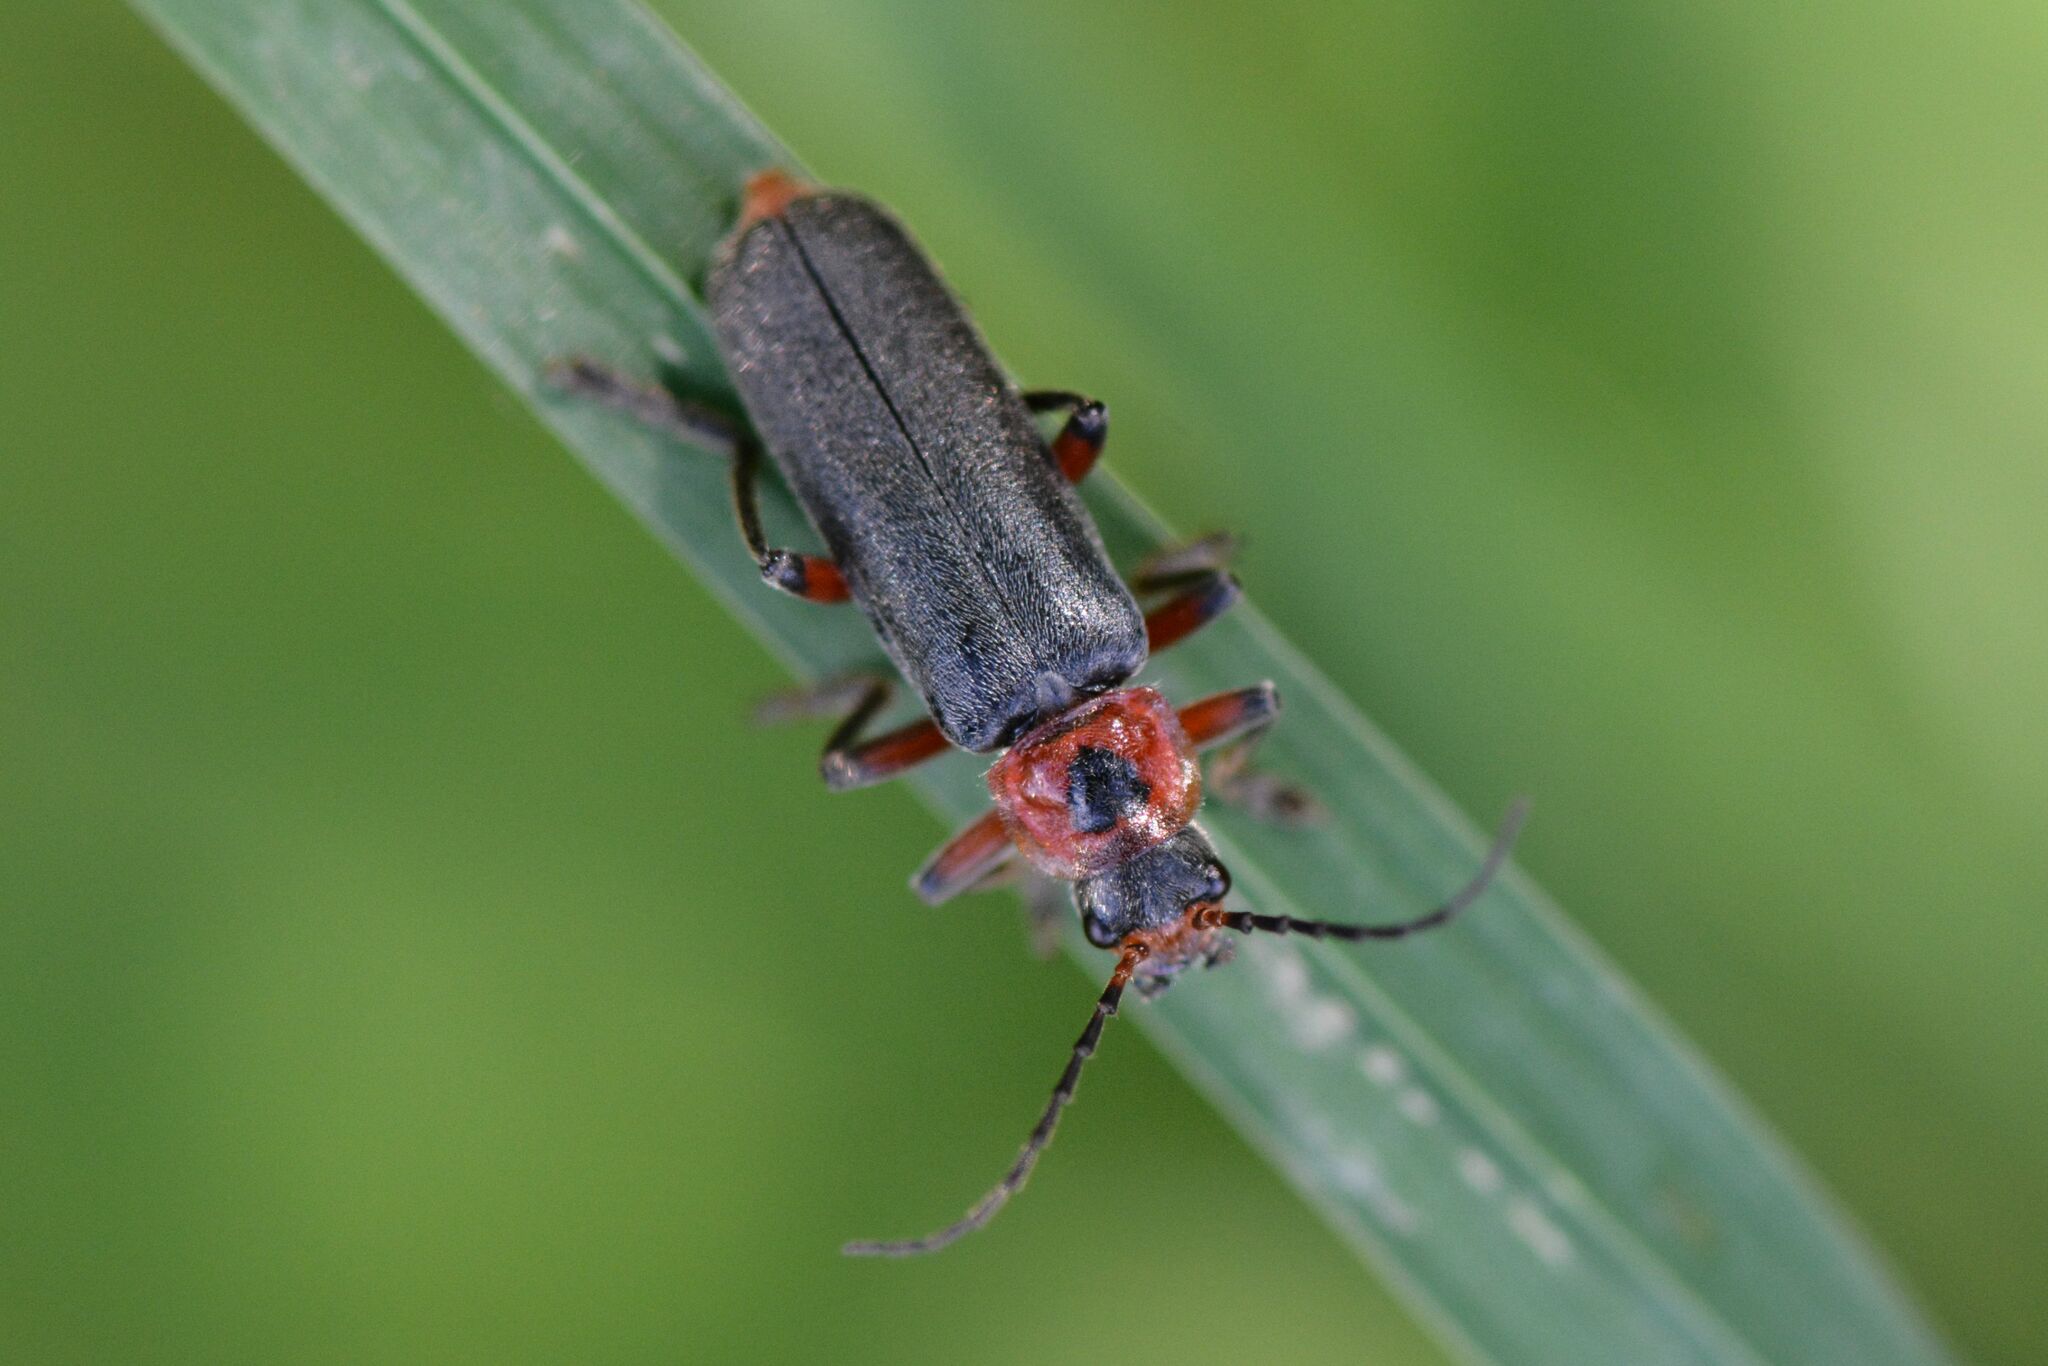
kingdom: Animalia
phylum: Arthropoda
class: Insecta
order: Coleoptera
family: Cantharidae
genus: Cantharis
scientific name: Cantharis rustica
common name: Soldier beetle
